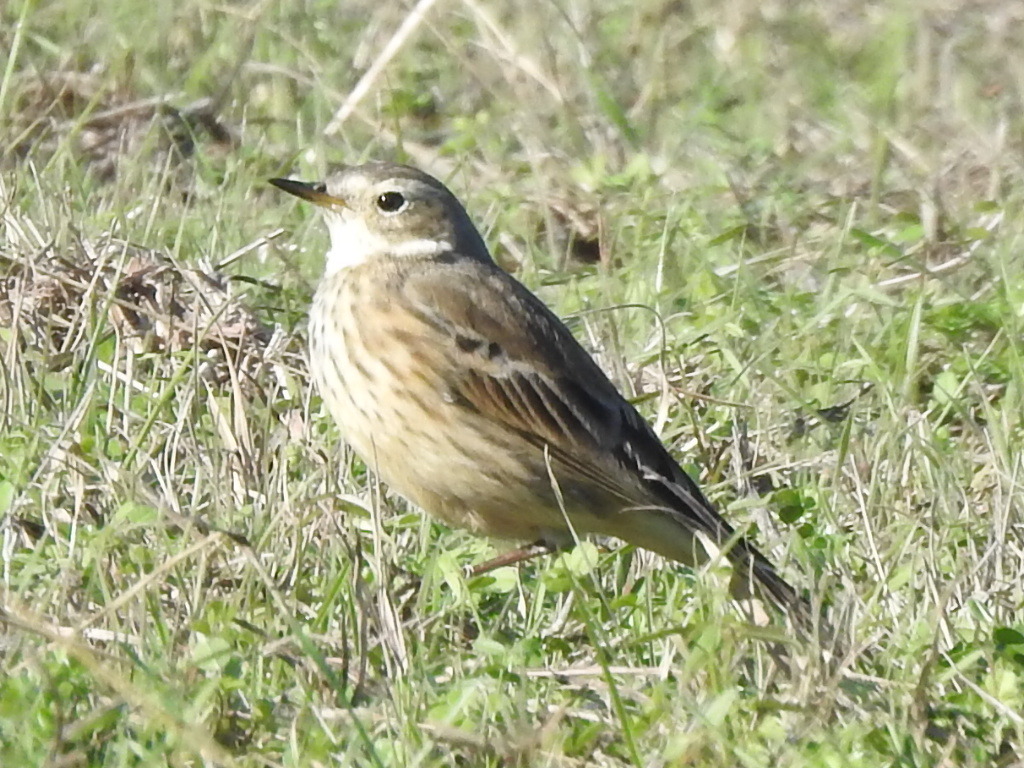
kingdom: Animalia
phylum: Chordata
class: Aves
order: Passeriformes
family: Motacillidae
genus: Anthus
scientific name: Anthus rubescens
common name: Buff-bellied pipit
